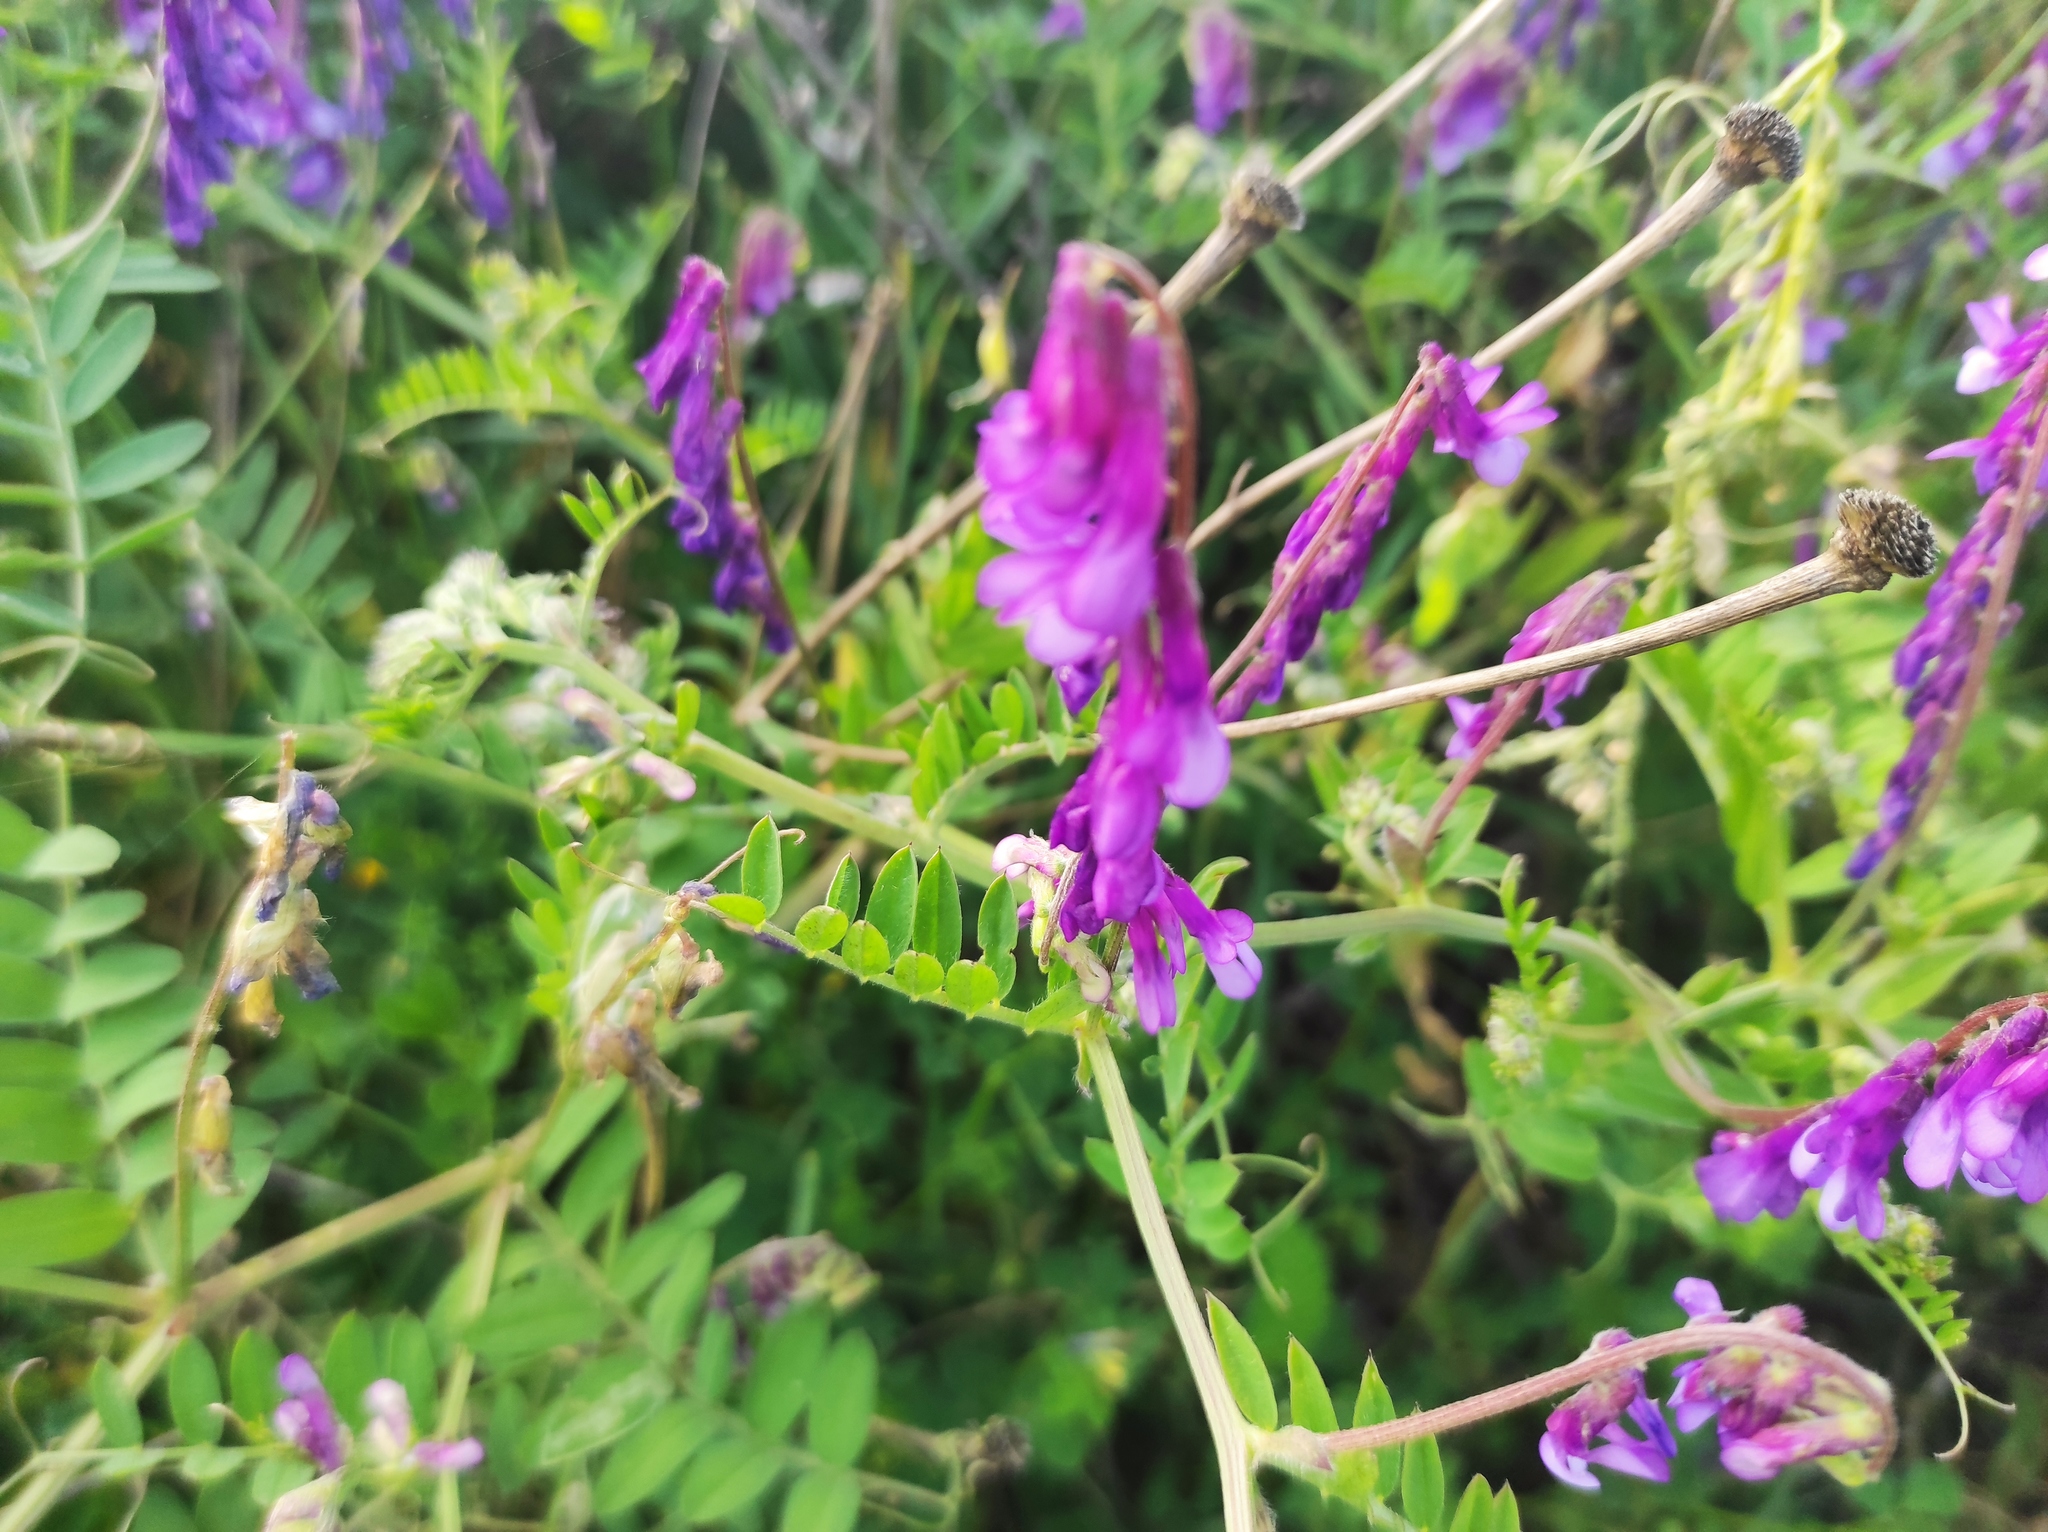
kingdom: Plantae
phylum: Tracheophyta
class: Magnoliopsida
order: Fabales
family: Fabaceae
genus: Vicia
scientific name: Vicia villosa
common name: Fodder vetch
